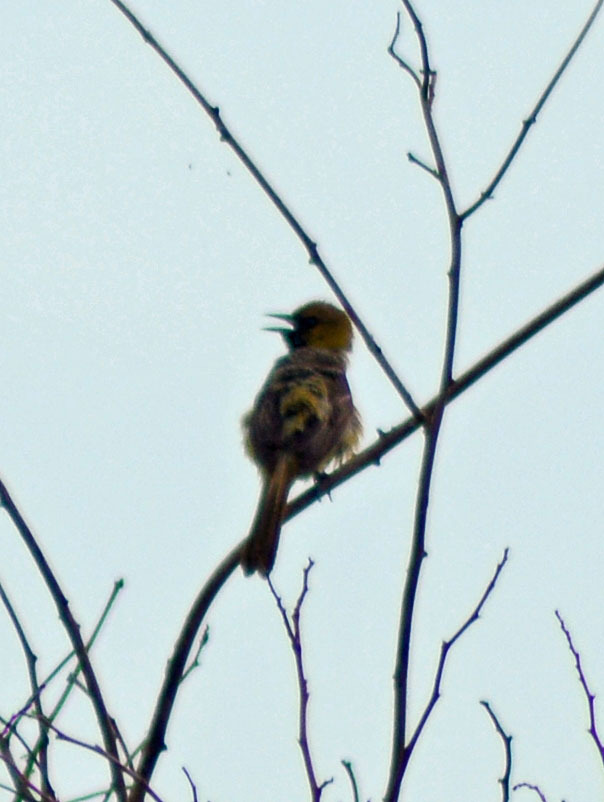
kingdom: Animalia
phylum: Chordata
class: Aves
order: Passeriformes
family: Icteridae
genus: Icterus
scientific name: Icterus spurius
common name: Orchard oriole
